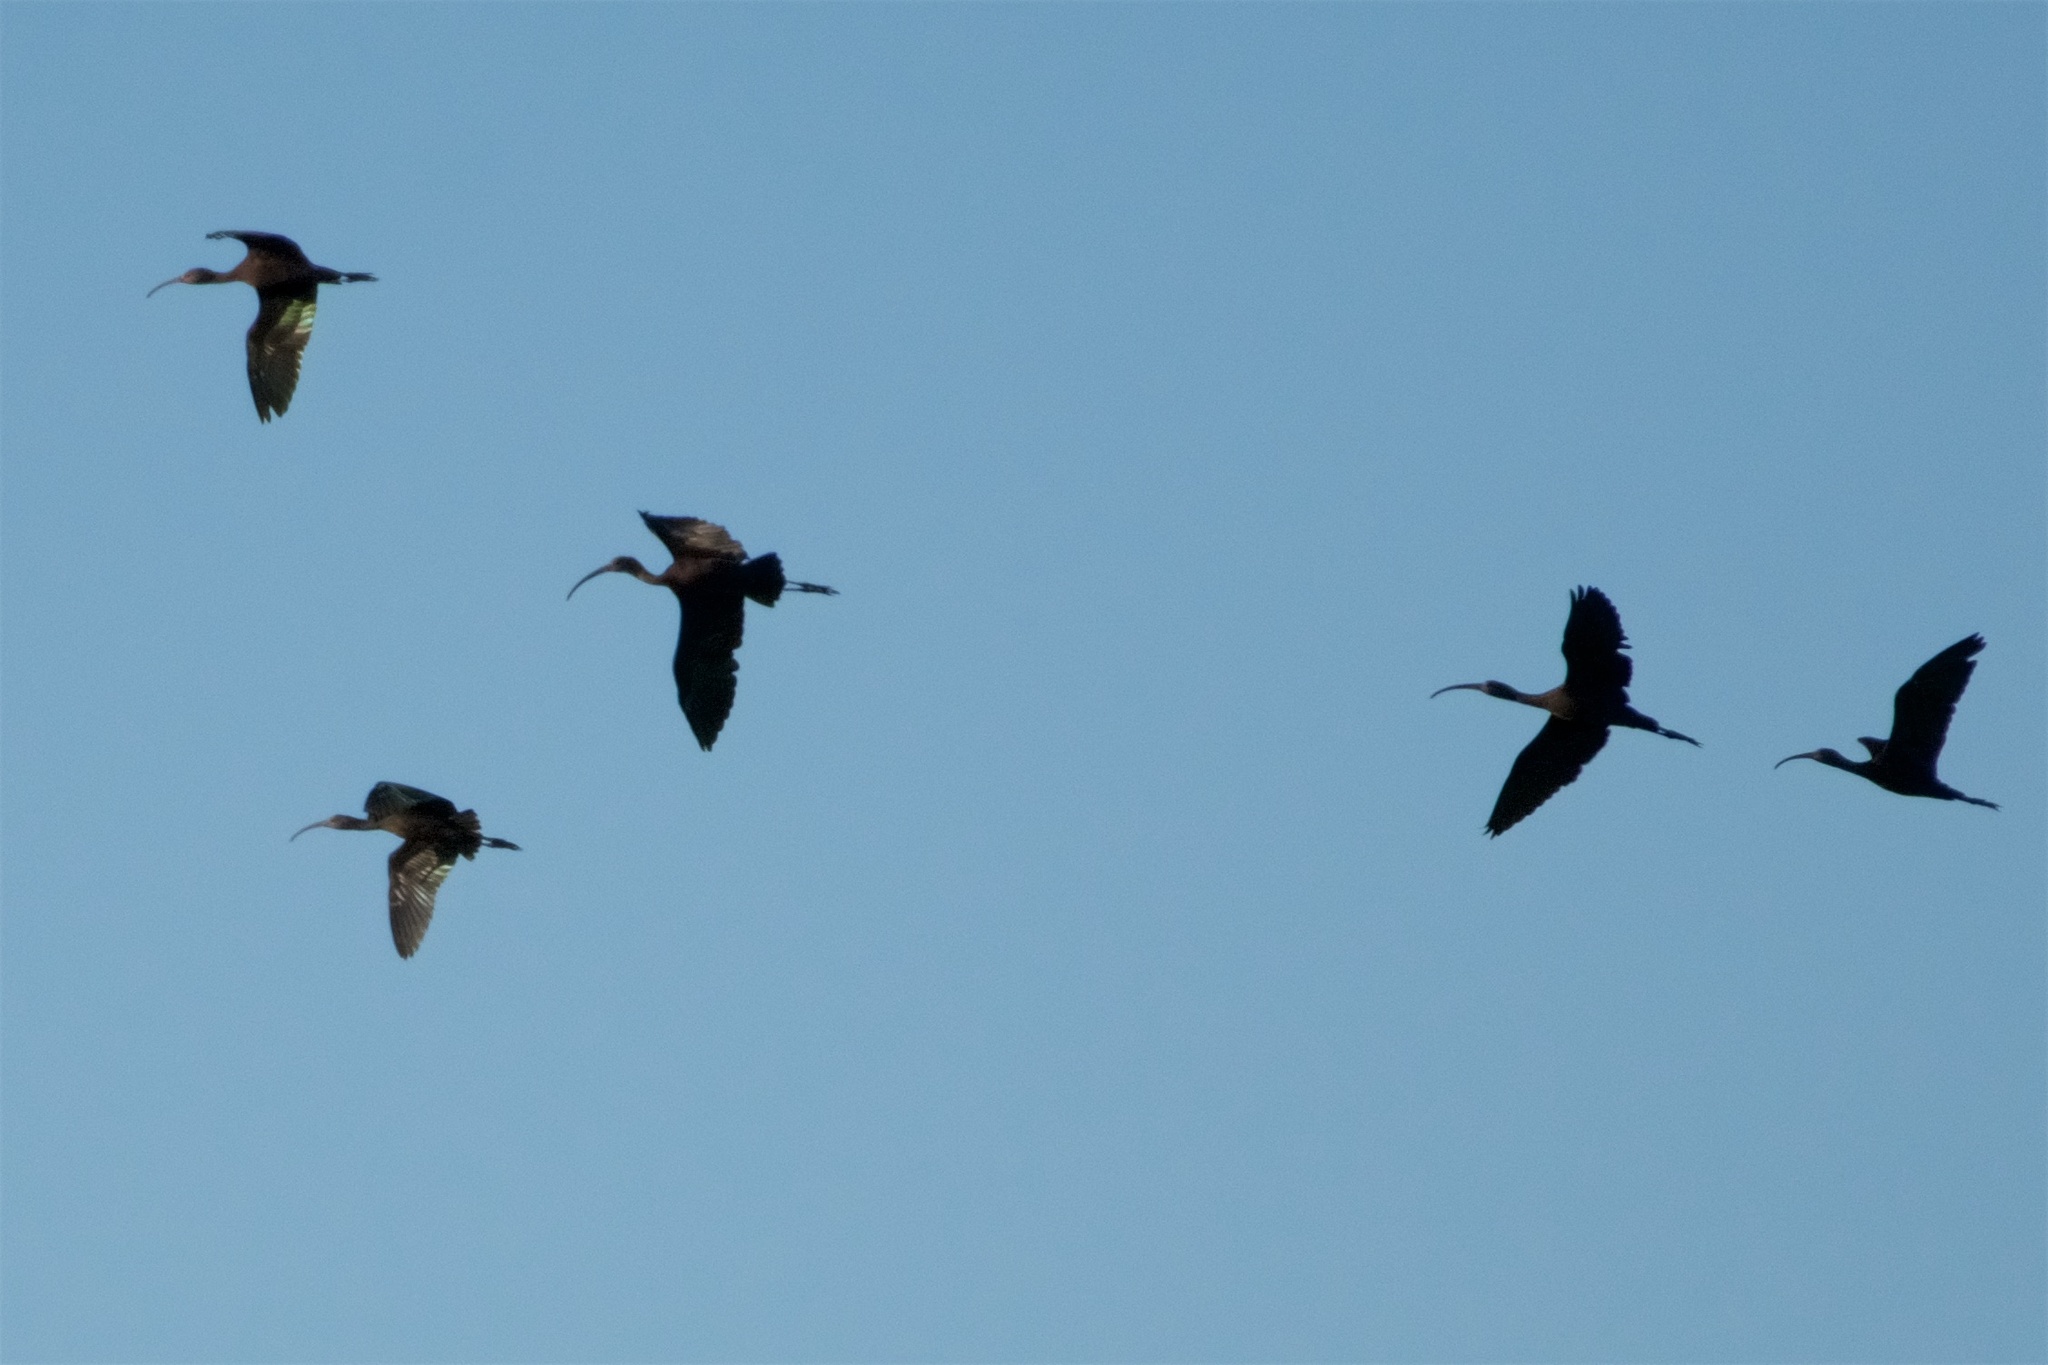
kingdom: Animalia
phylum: Chordata
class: Aves
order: Pelecaniformes
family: Threskiornithidae
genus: Plegadis
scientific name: Plegadis chihi
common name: White-faced ibis
